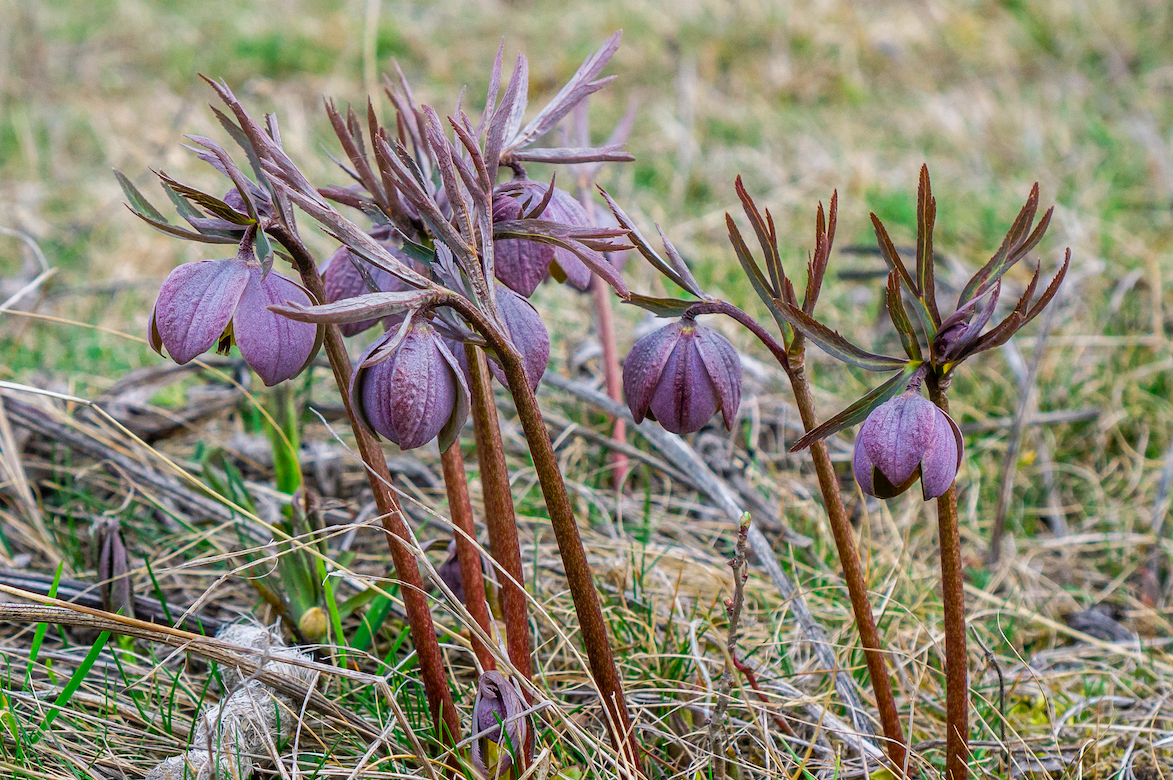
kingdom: Plantae
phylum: Tracheophyta
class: Magnoliopsida
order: Ranunculales
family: Ranunculaceae
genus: Helleborus
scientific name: Helleborus purpurascens
